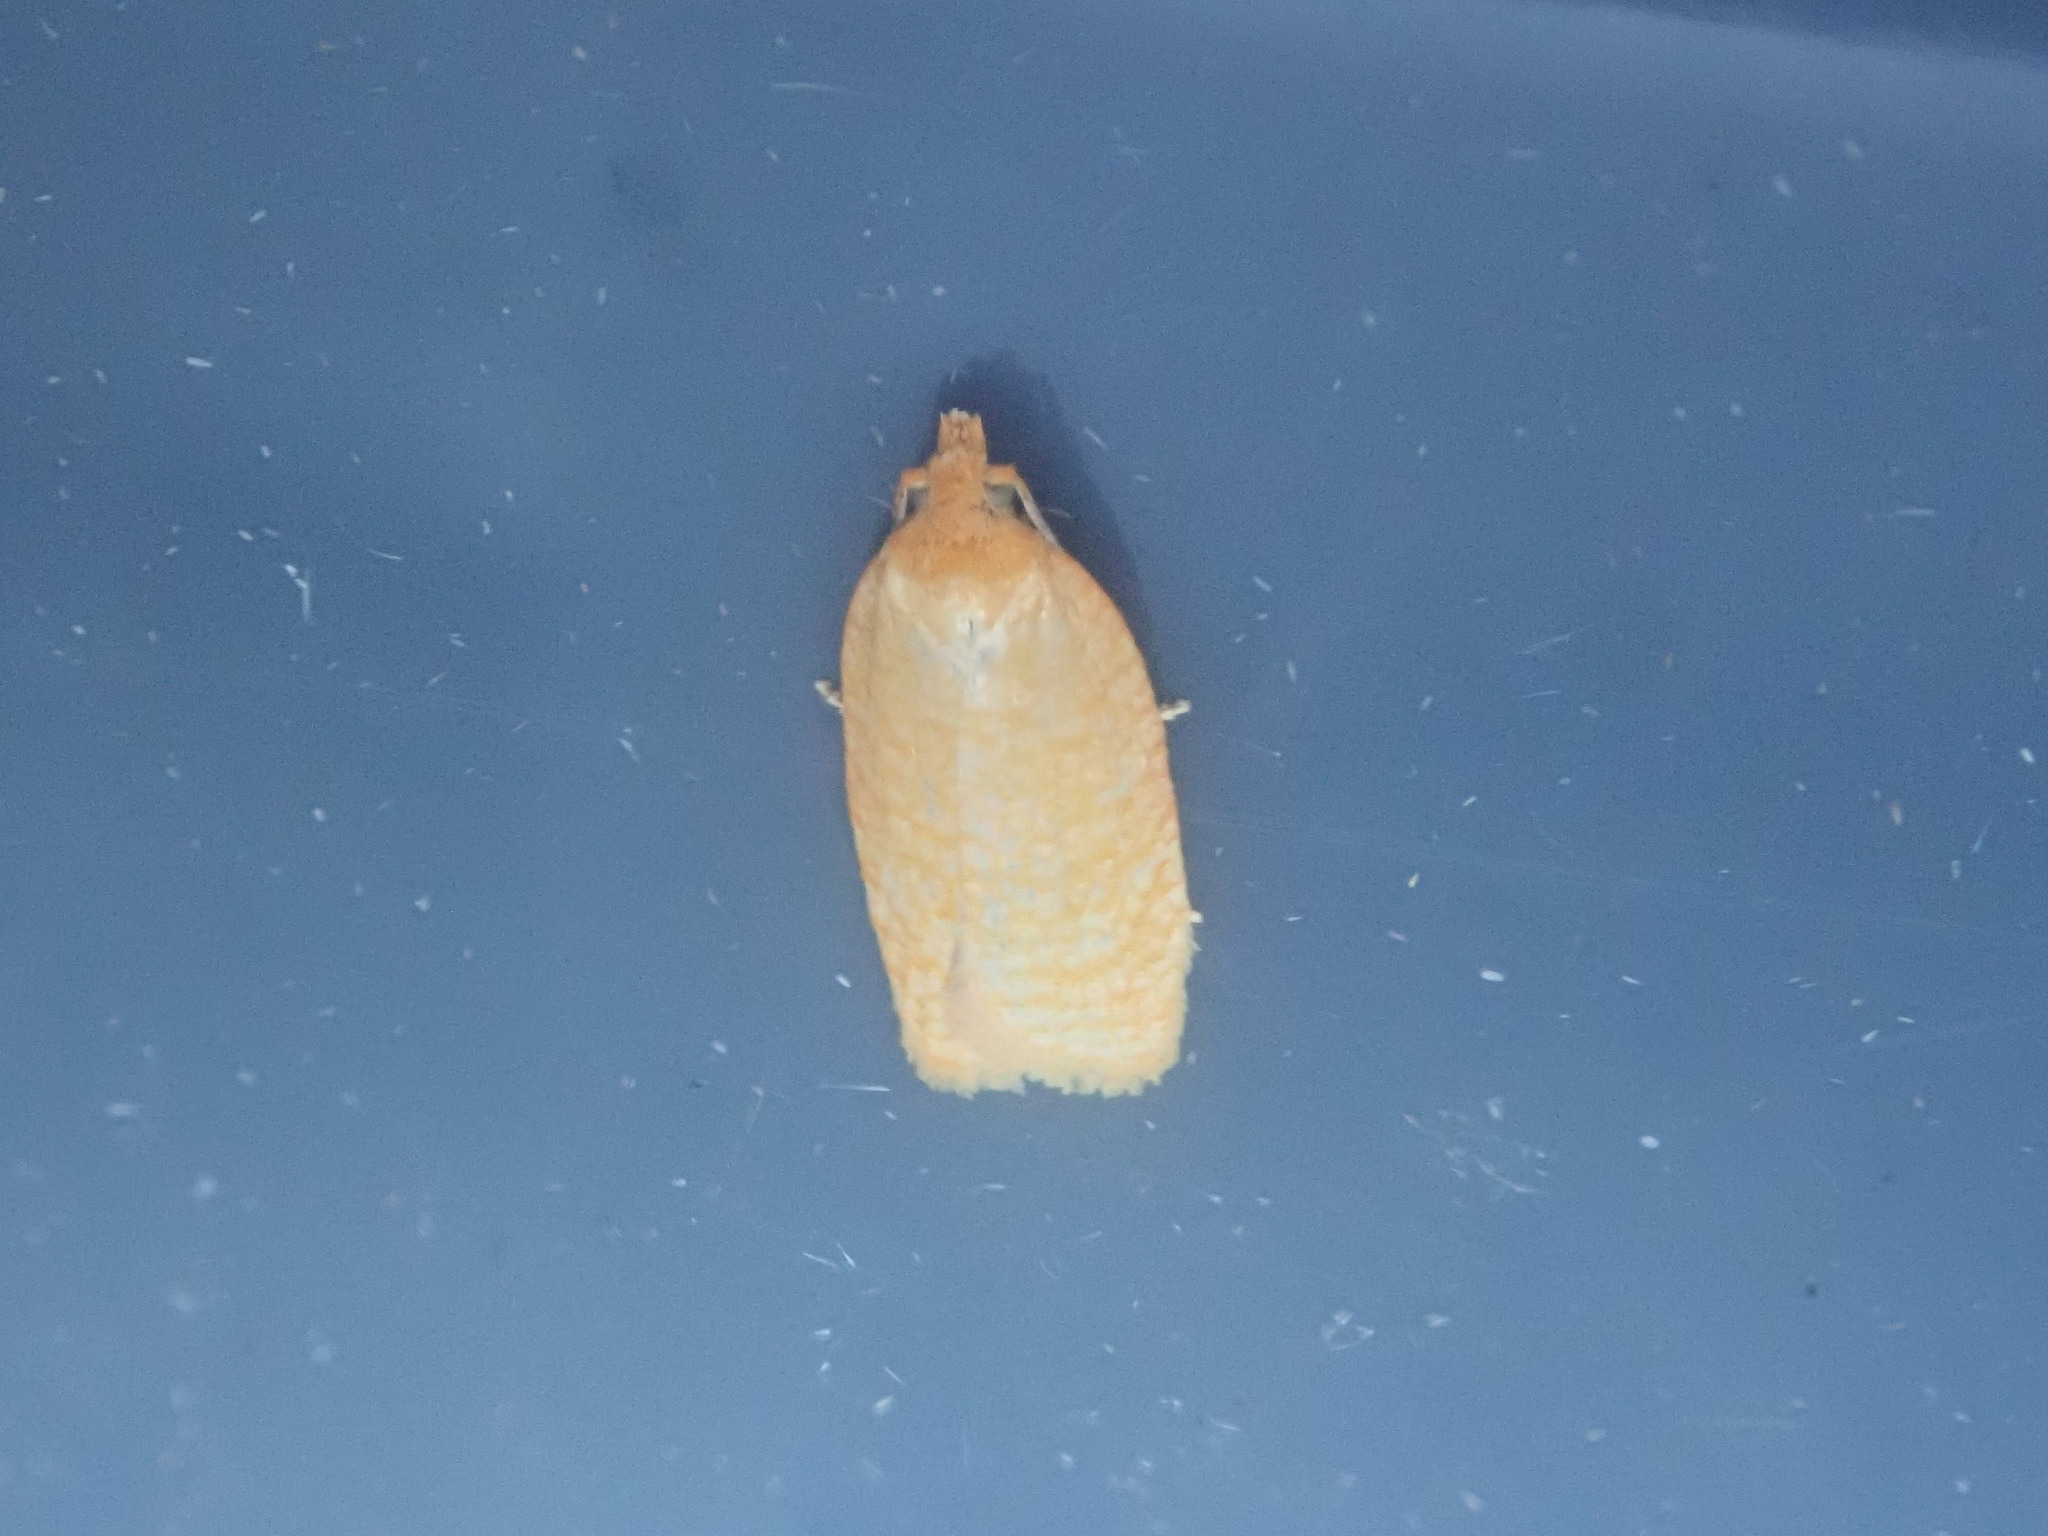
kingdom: Animalia
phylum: Arthropoda
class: Insecta
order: Lepidoptera
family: Tortricidae
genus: Sparganothis
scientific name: Sparganothis distincta
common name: Distinct sparganothis moth
